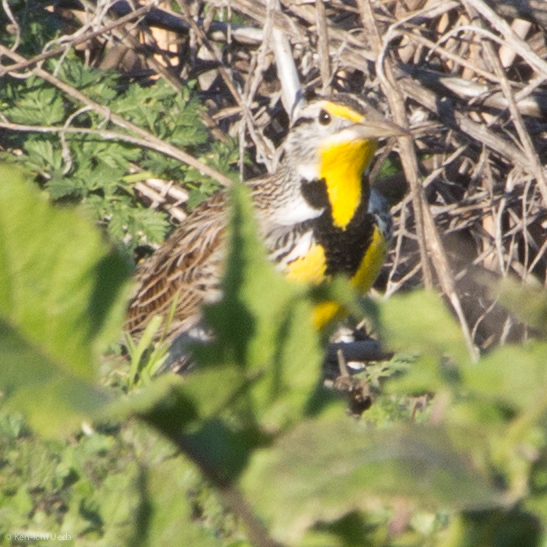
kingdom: Animalia
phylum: Chordata
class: Aves
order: Passeriformes
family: Icteridae
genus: Sturnella
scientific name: Sturnella neglecta
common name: Western meadowlark
